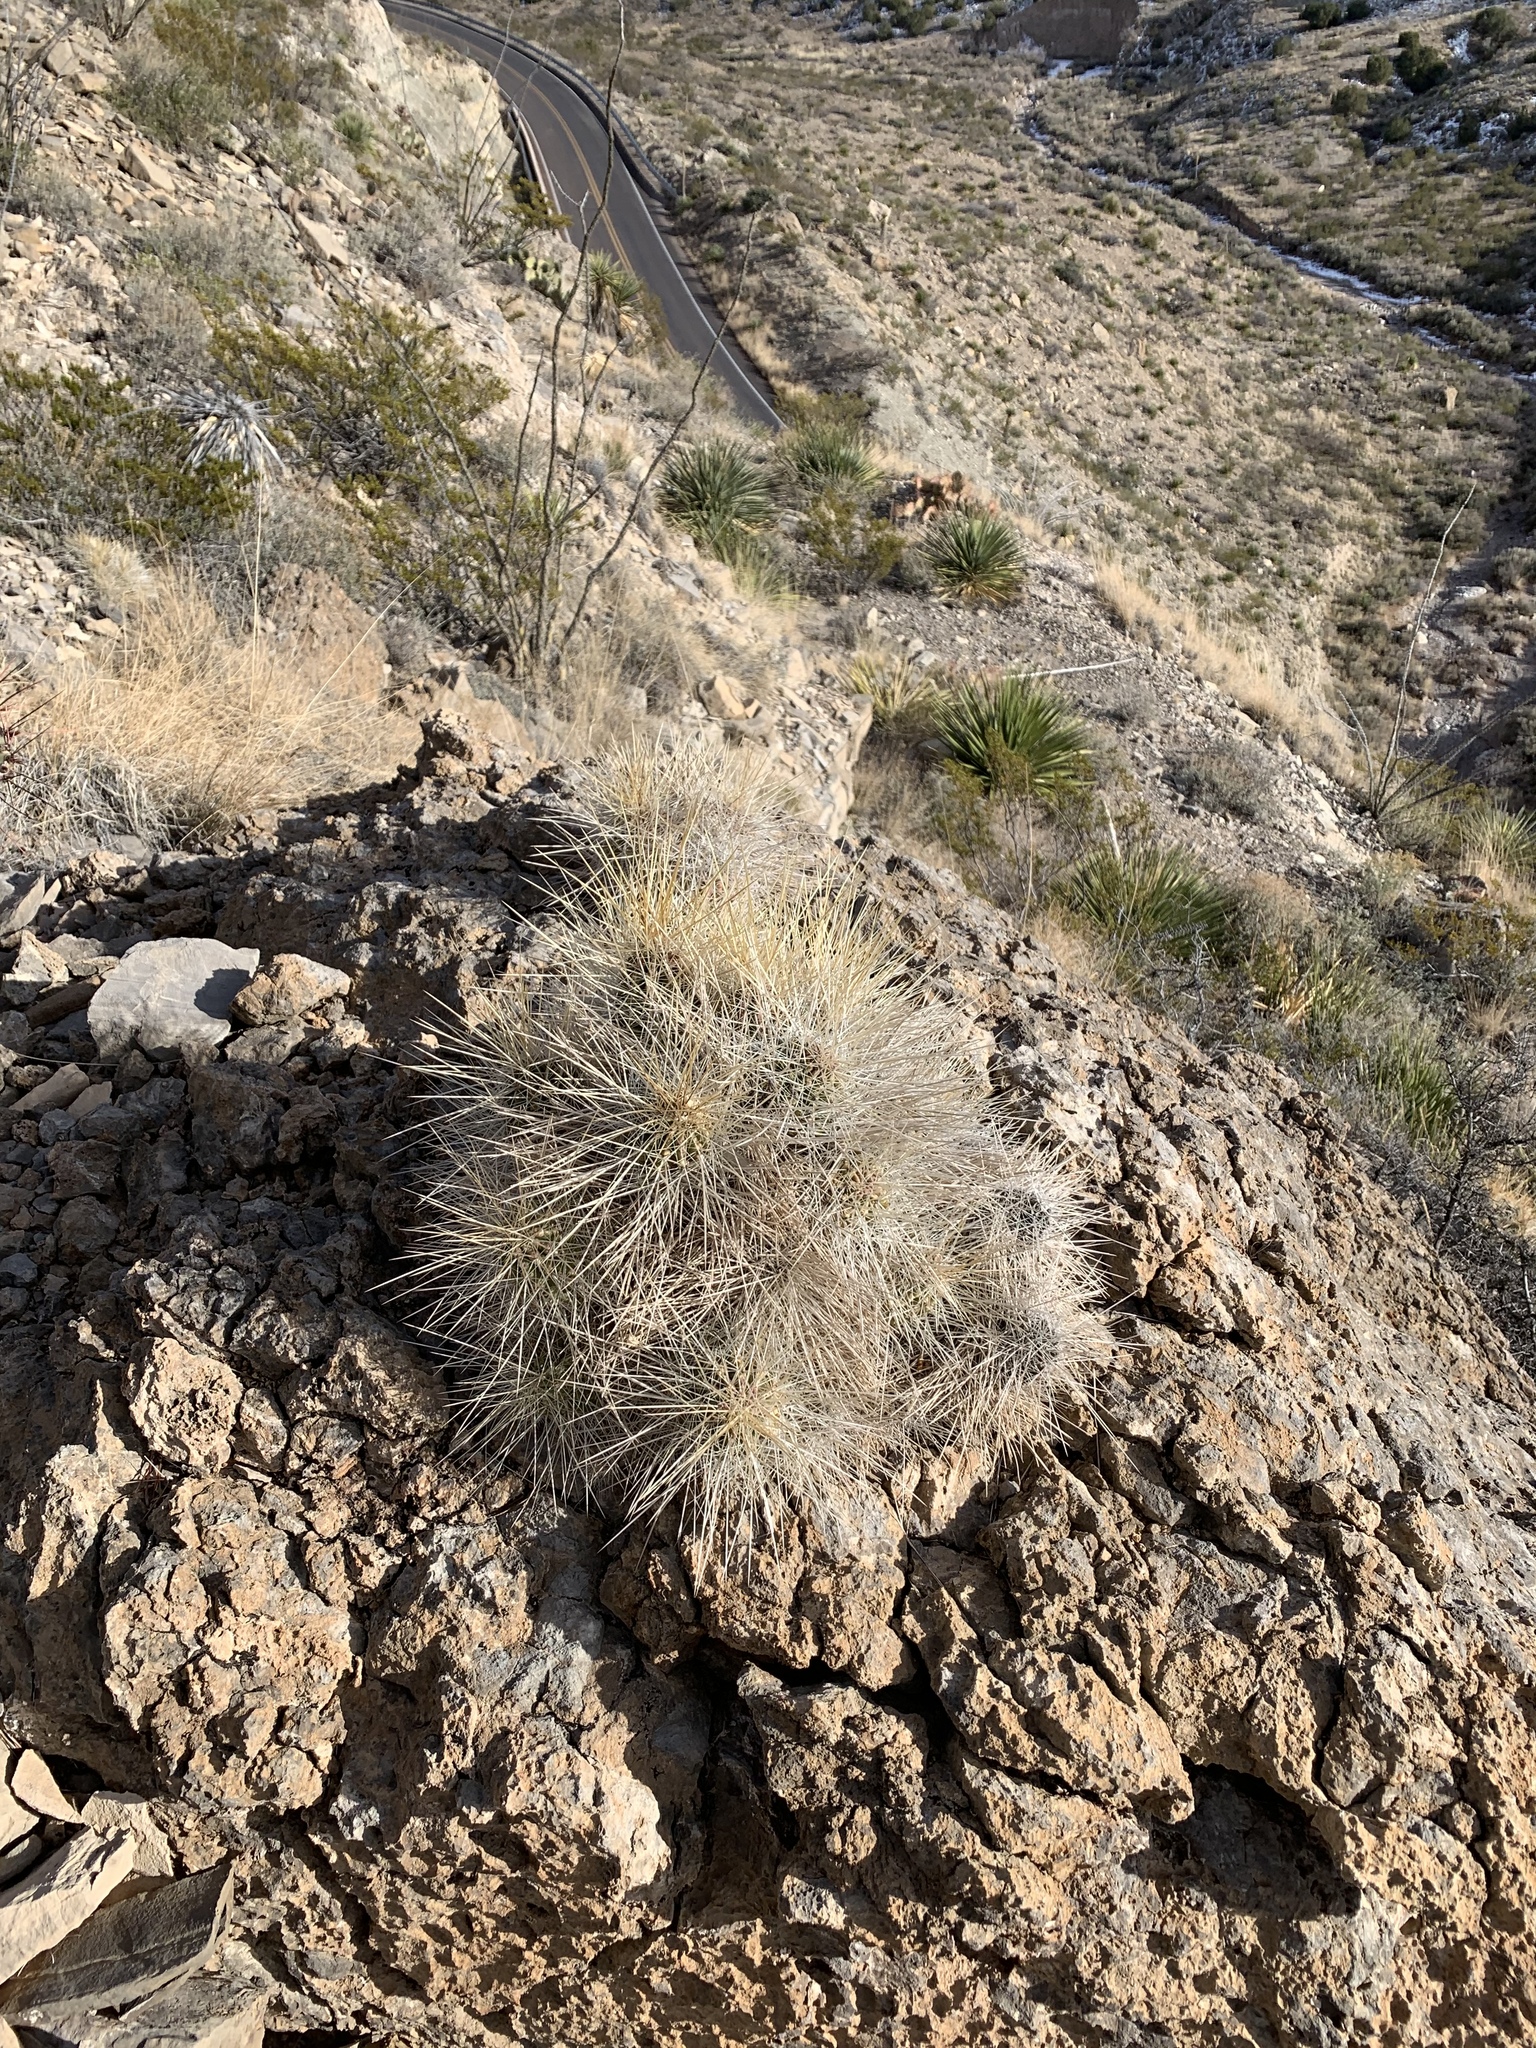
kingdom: Plantae
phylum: Tracheophyta
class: Magnoliopsida
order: Caryophyllales
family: Cactaceae
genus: Echinocereus
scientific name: Echinocereus stramineus
